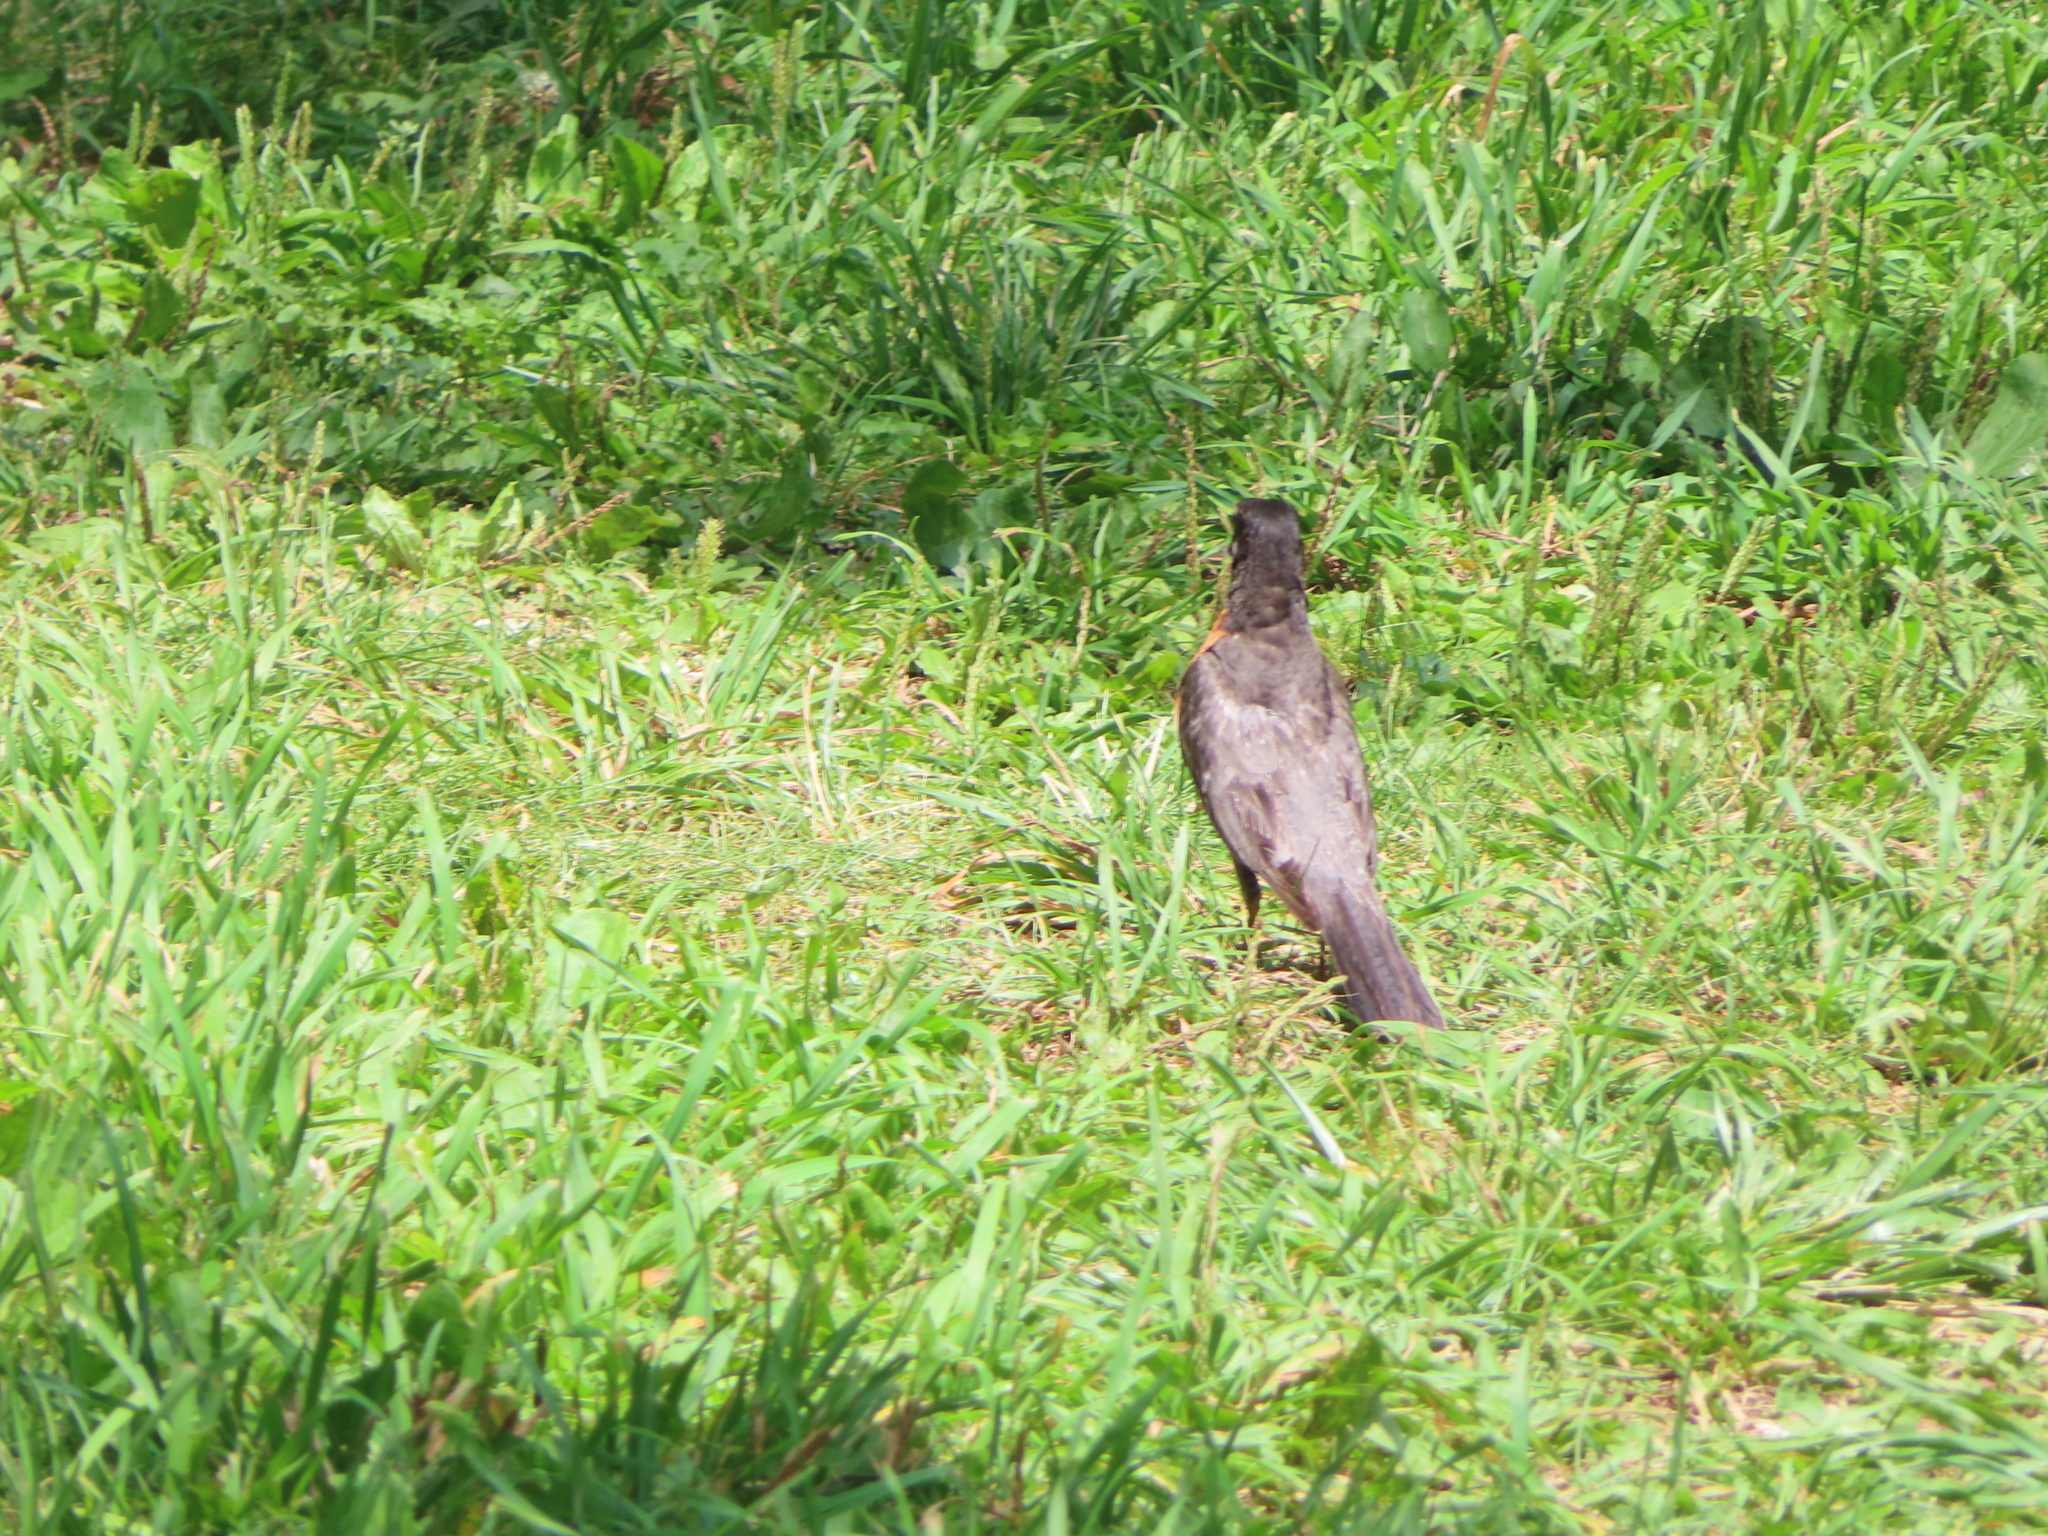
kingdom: Animalia
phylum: Chordata
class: Aves
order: Passeriformes
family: Turdidae
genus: Turdus
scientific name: Turdus migratorius
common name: American robin
